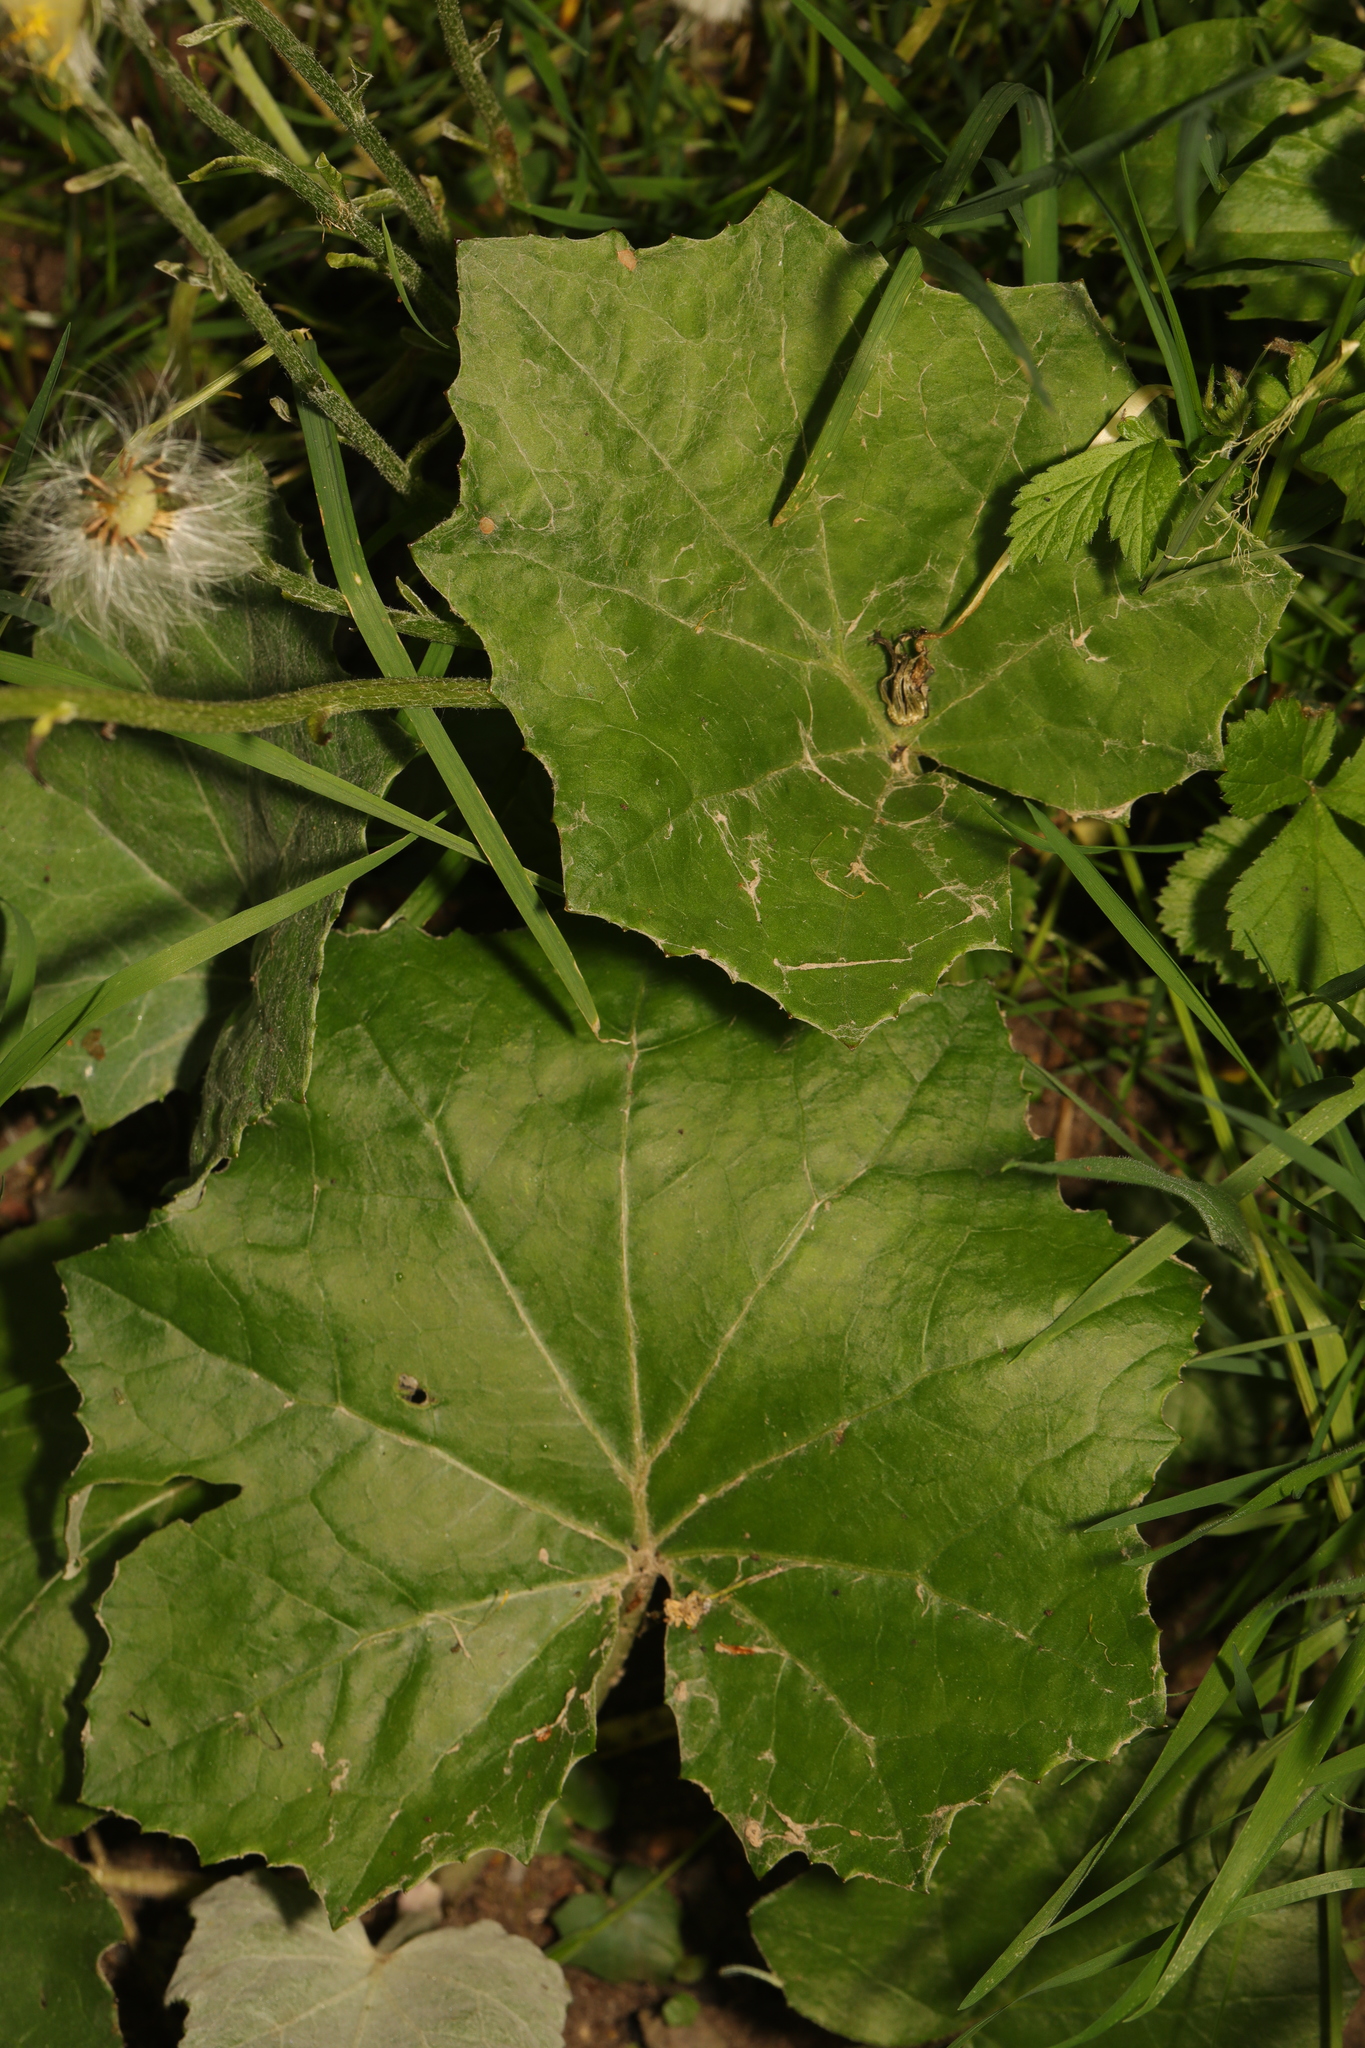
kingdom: Plantae
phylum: Tracheophyta
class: Magnoliopsida
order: Asterales
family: Asteraceae
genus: Tussilago
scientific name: Tussilago farfara
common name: Coltsfoot
